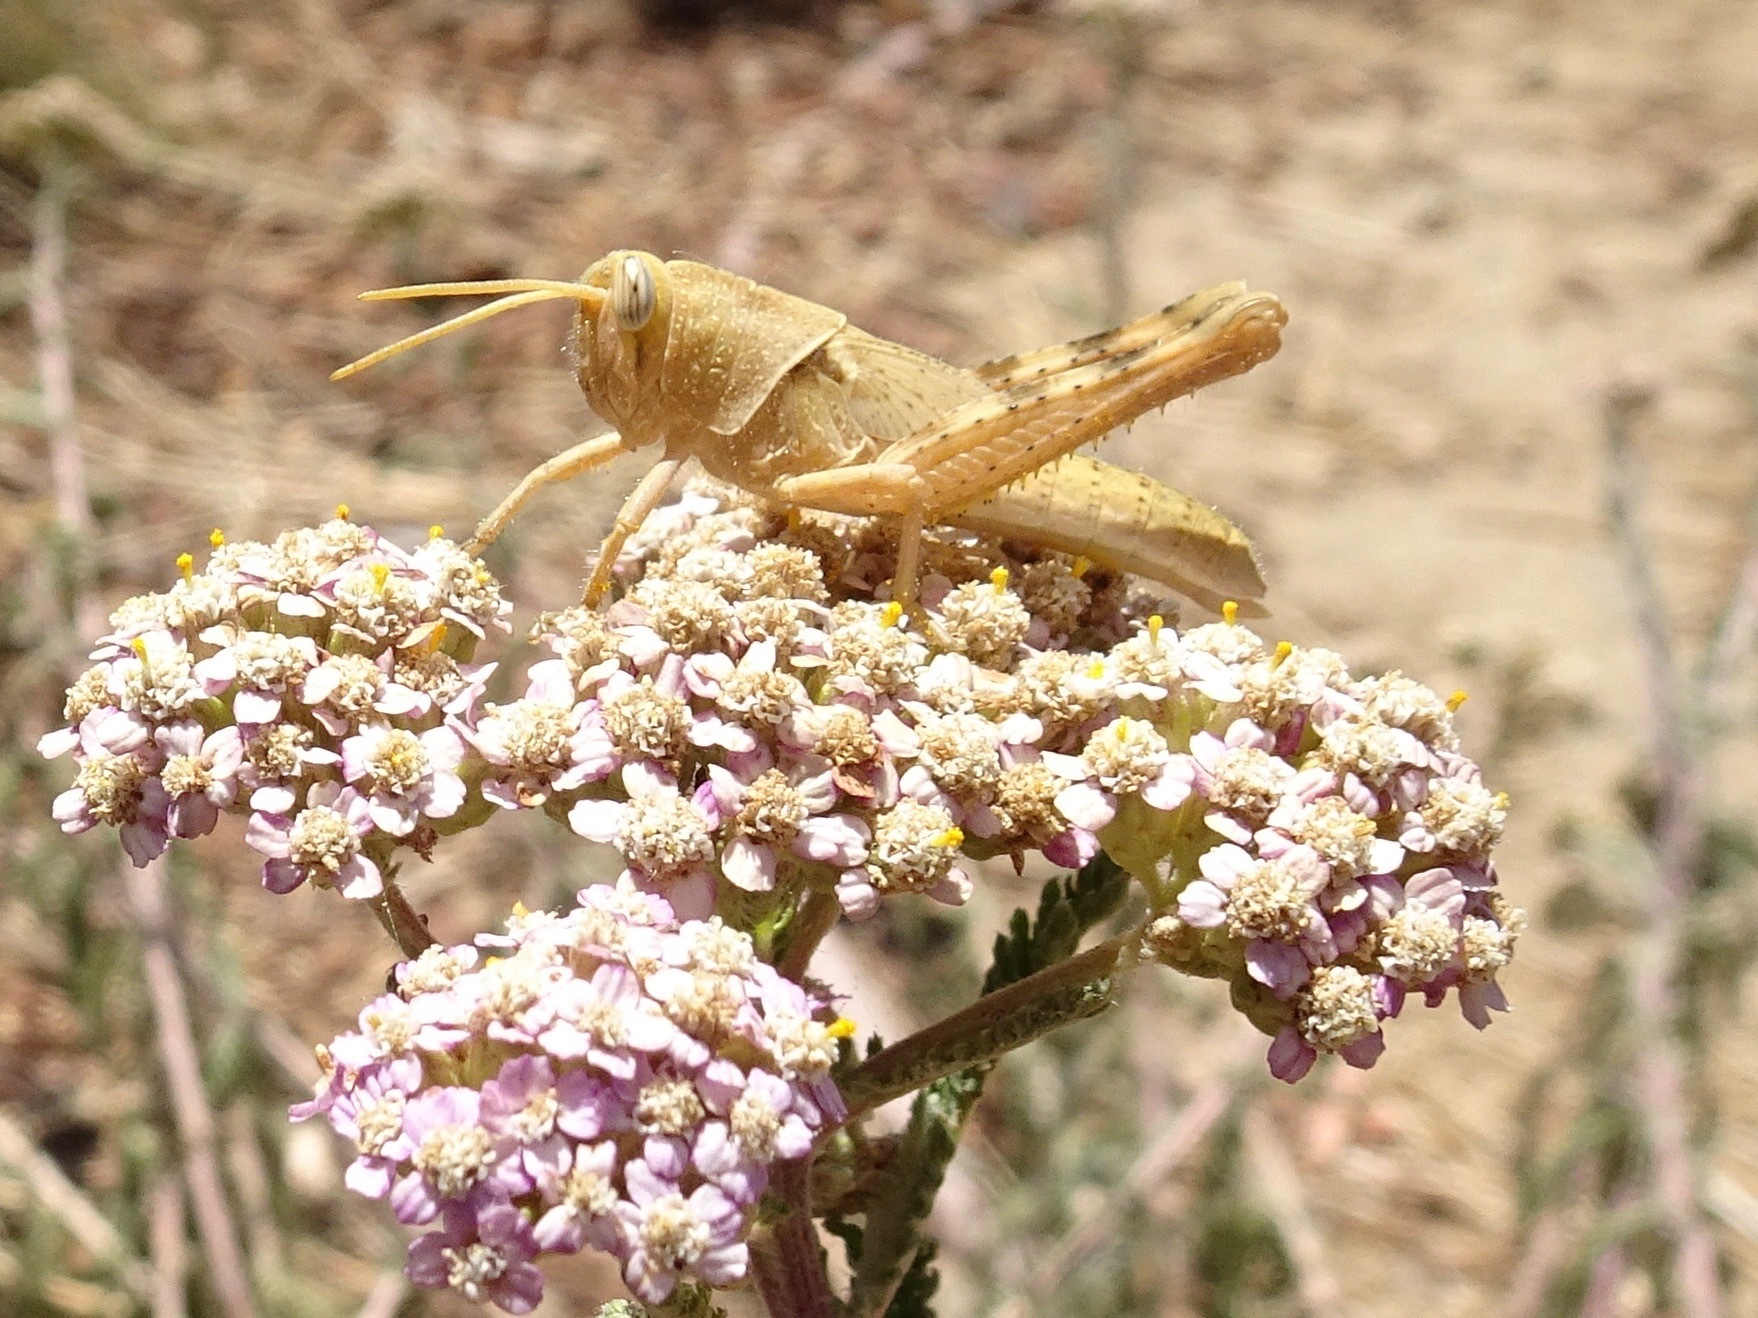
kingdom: Animalia
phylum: Arthropoda
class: Insecta
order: Orthoptera
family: Acrididae
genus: Schistocerca
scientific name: Schistocerca nitens
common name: Vagrant grasshopper
